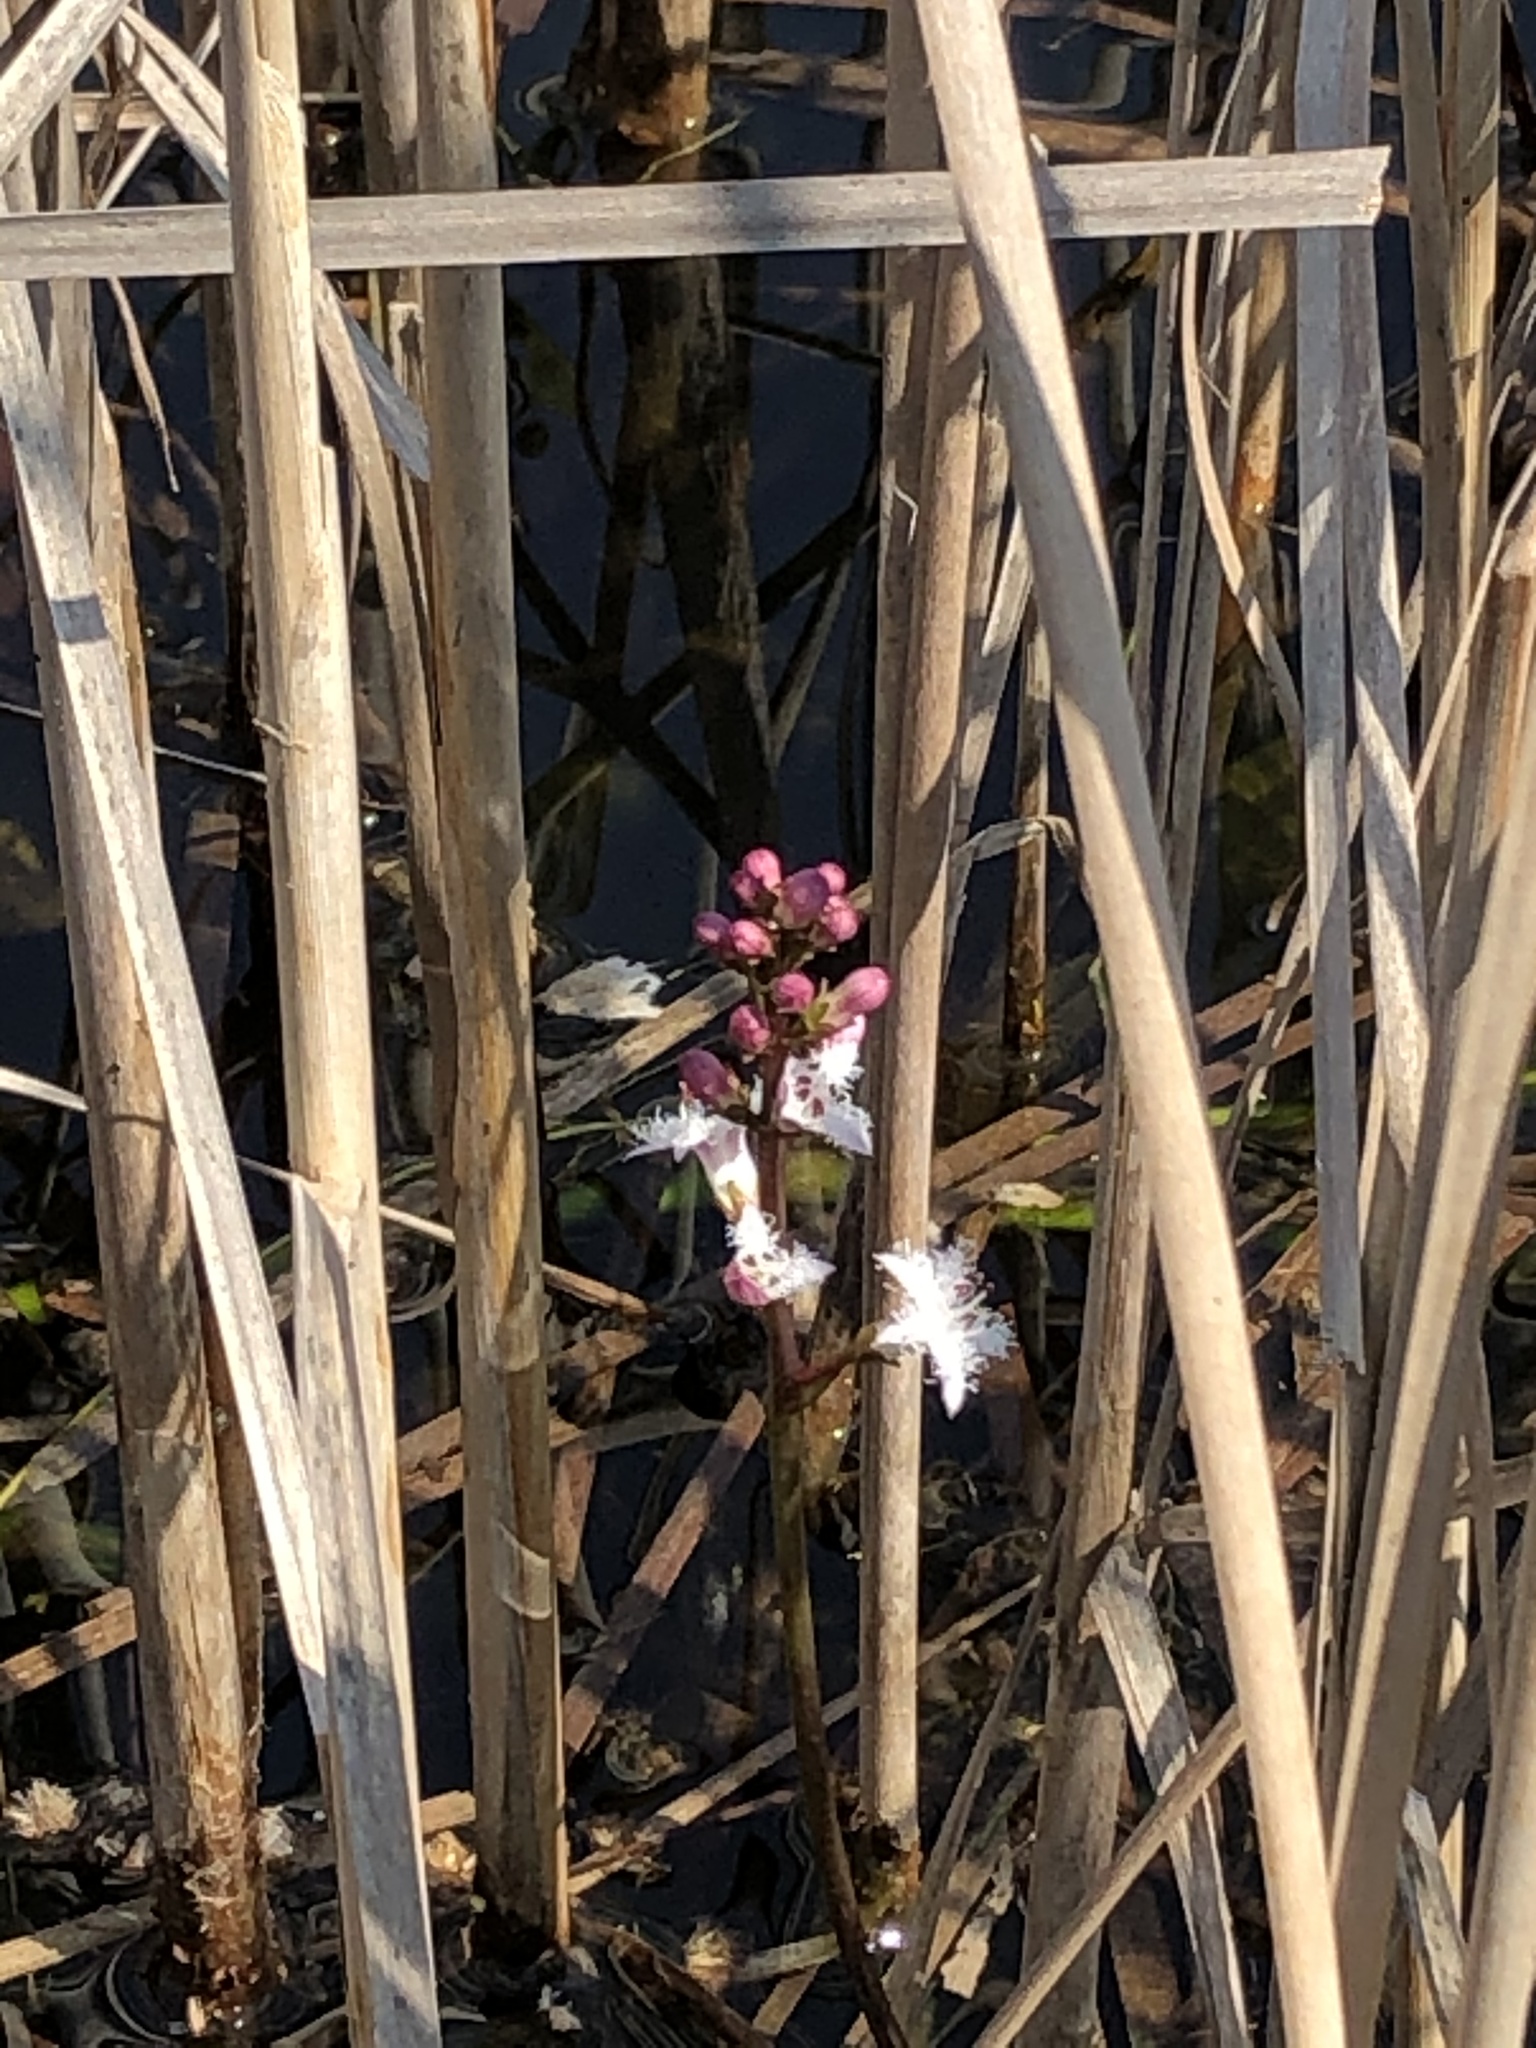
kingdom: Plantae
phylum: Tracheophyta
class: Magnoliopsida
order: Asterales
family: Menyanthaceae
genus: Menyanthes
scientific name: Menyanthes trifoliata
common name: Bogbean
